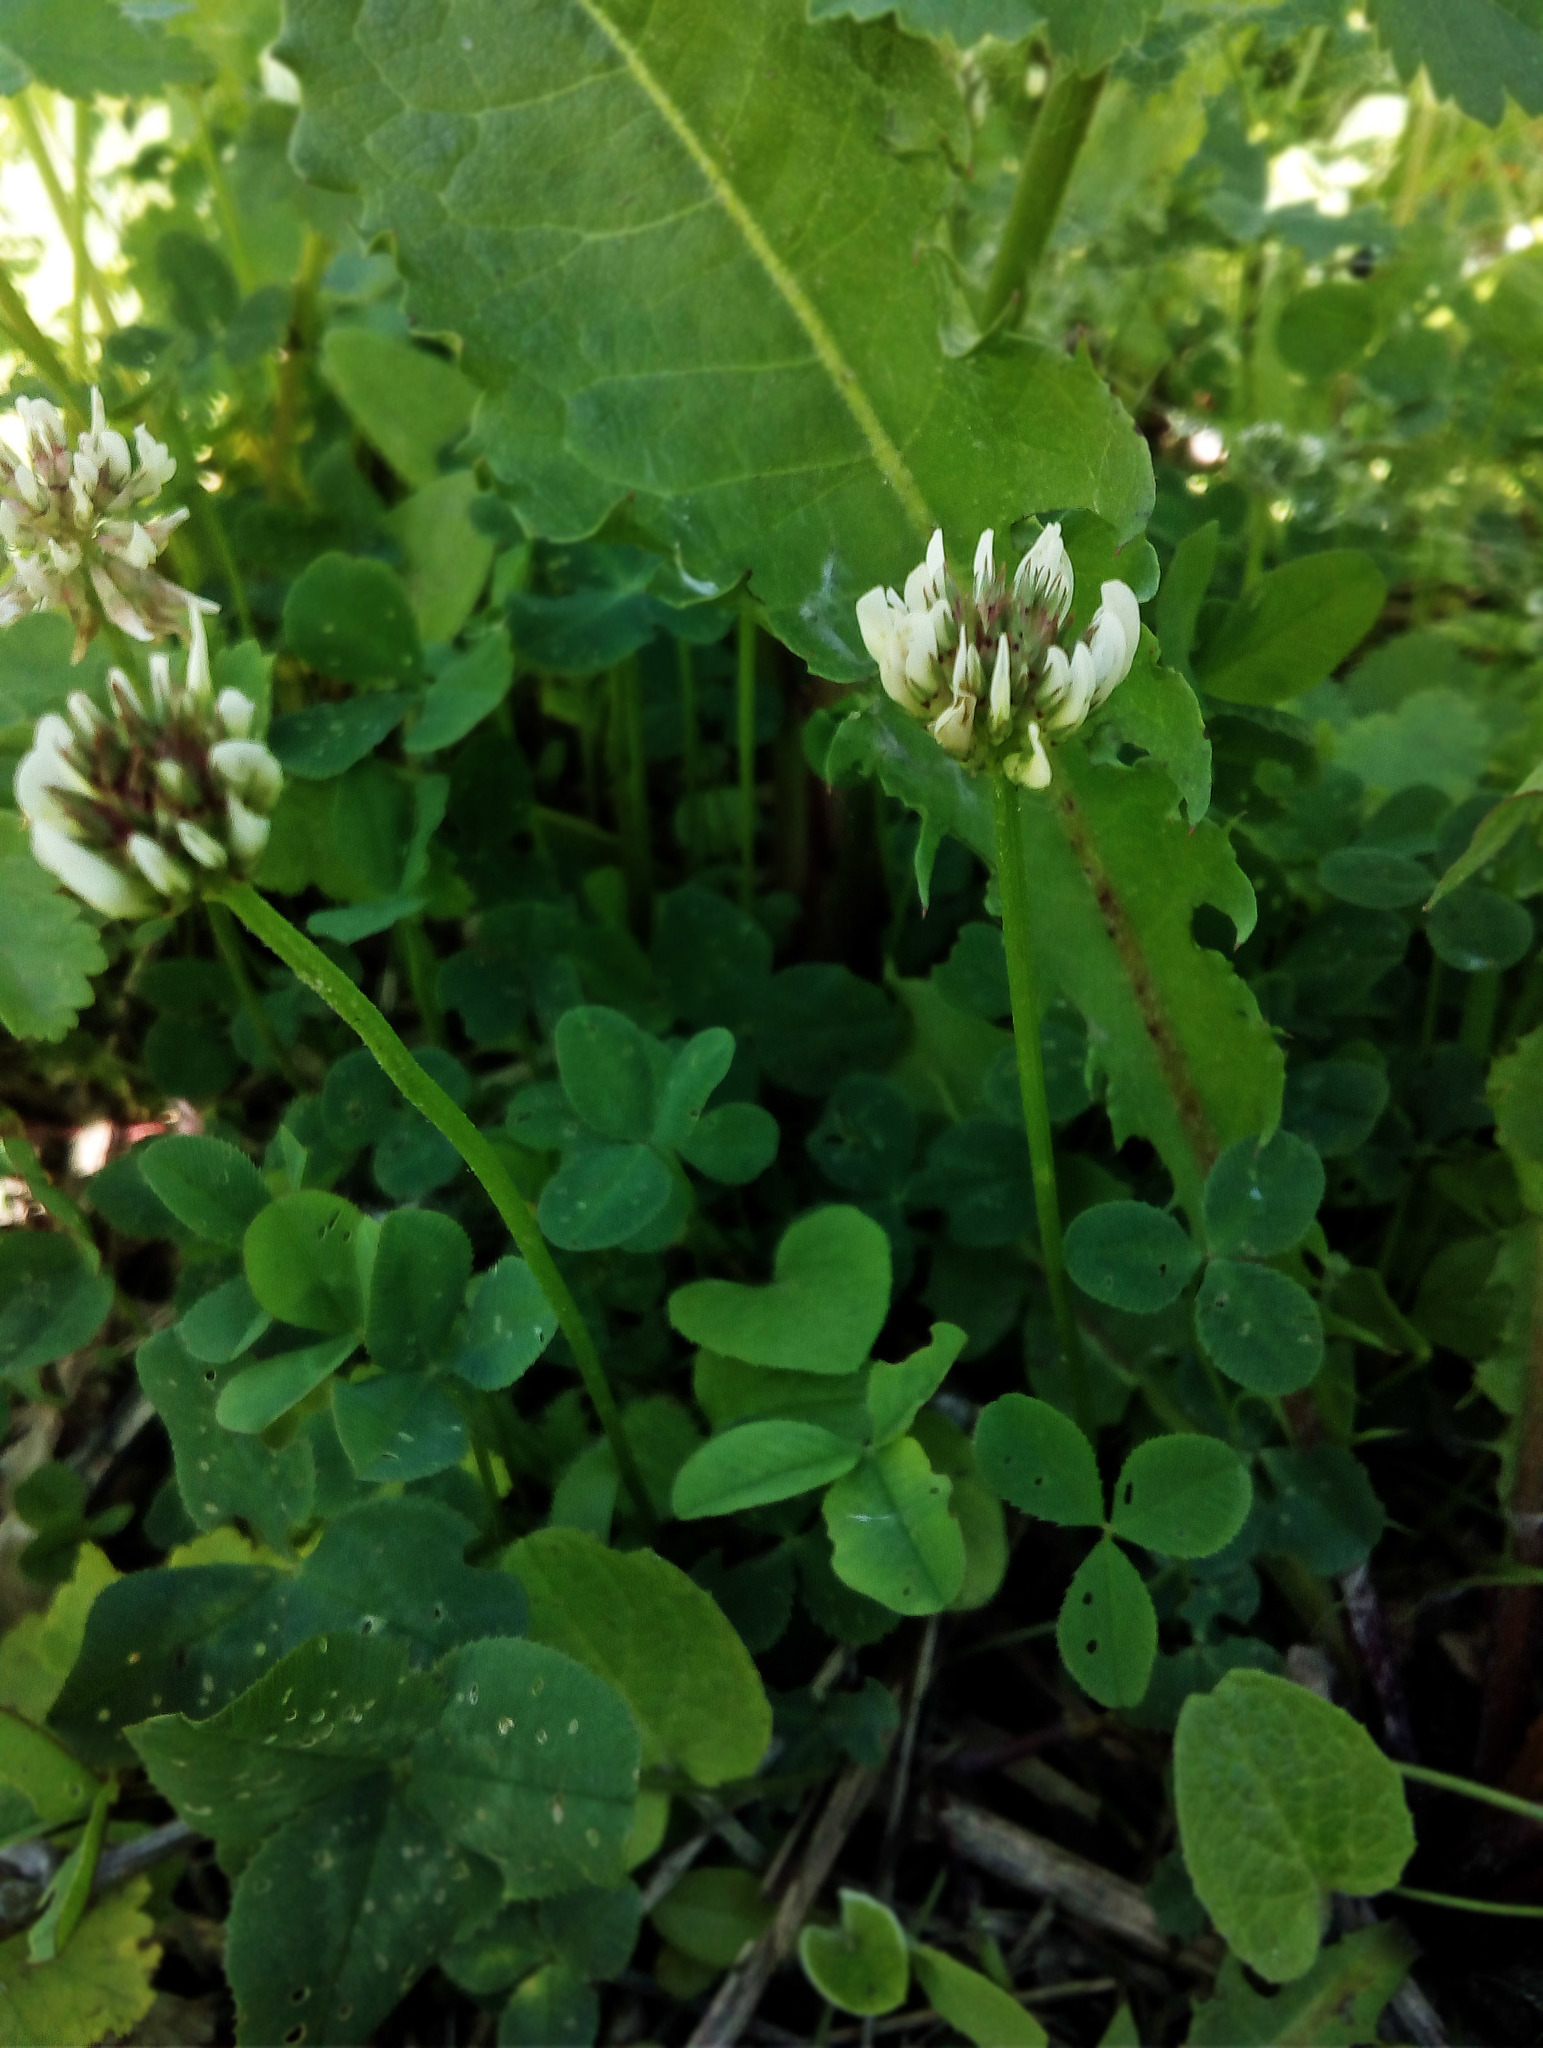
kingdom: Plantae
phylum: Tracheophyta
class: Magnoliopsida
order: Fabales
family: Fabaceae
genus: Trifolium
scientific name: Trifolium repens
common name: White clover
